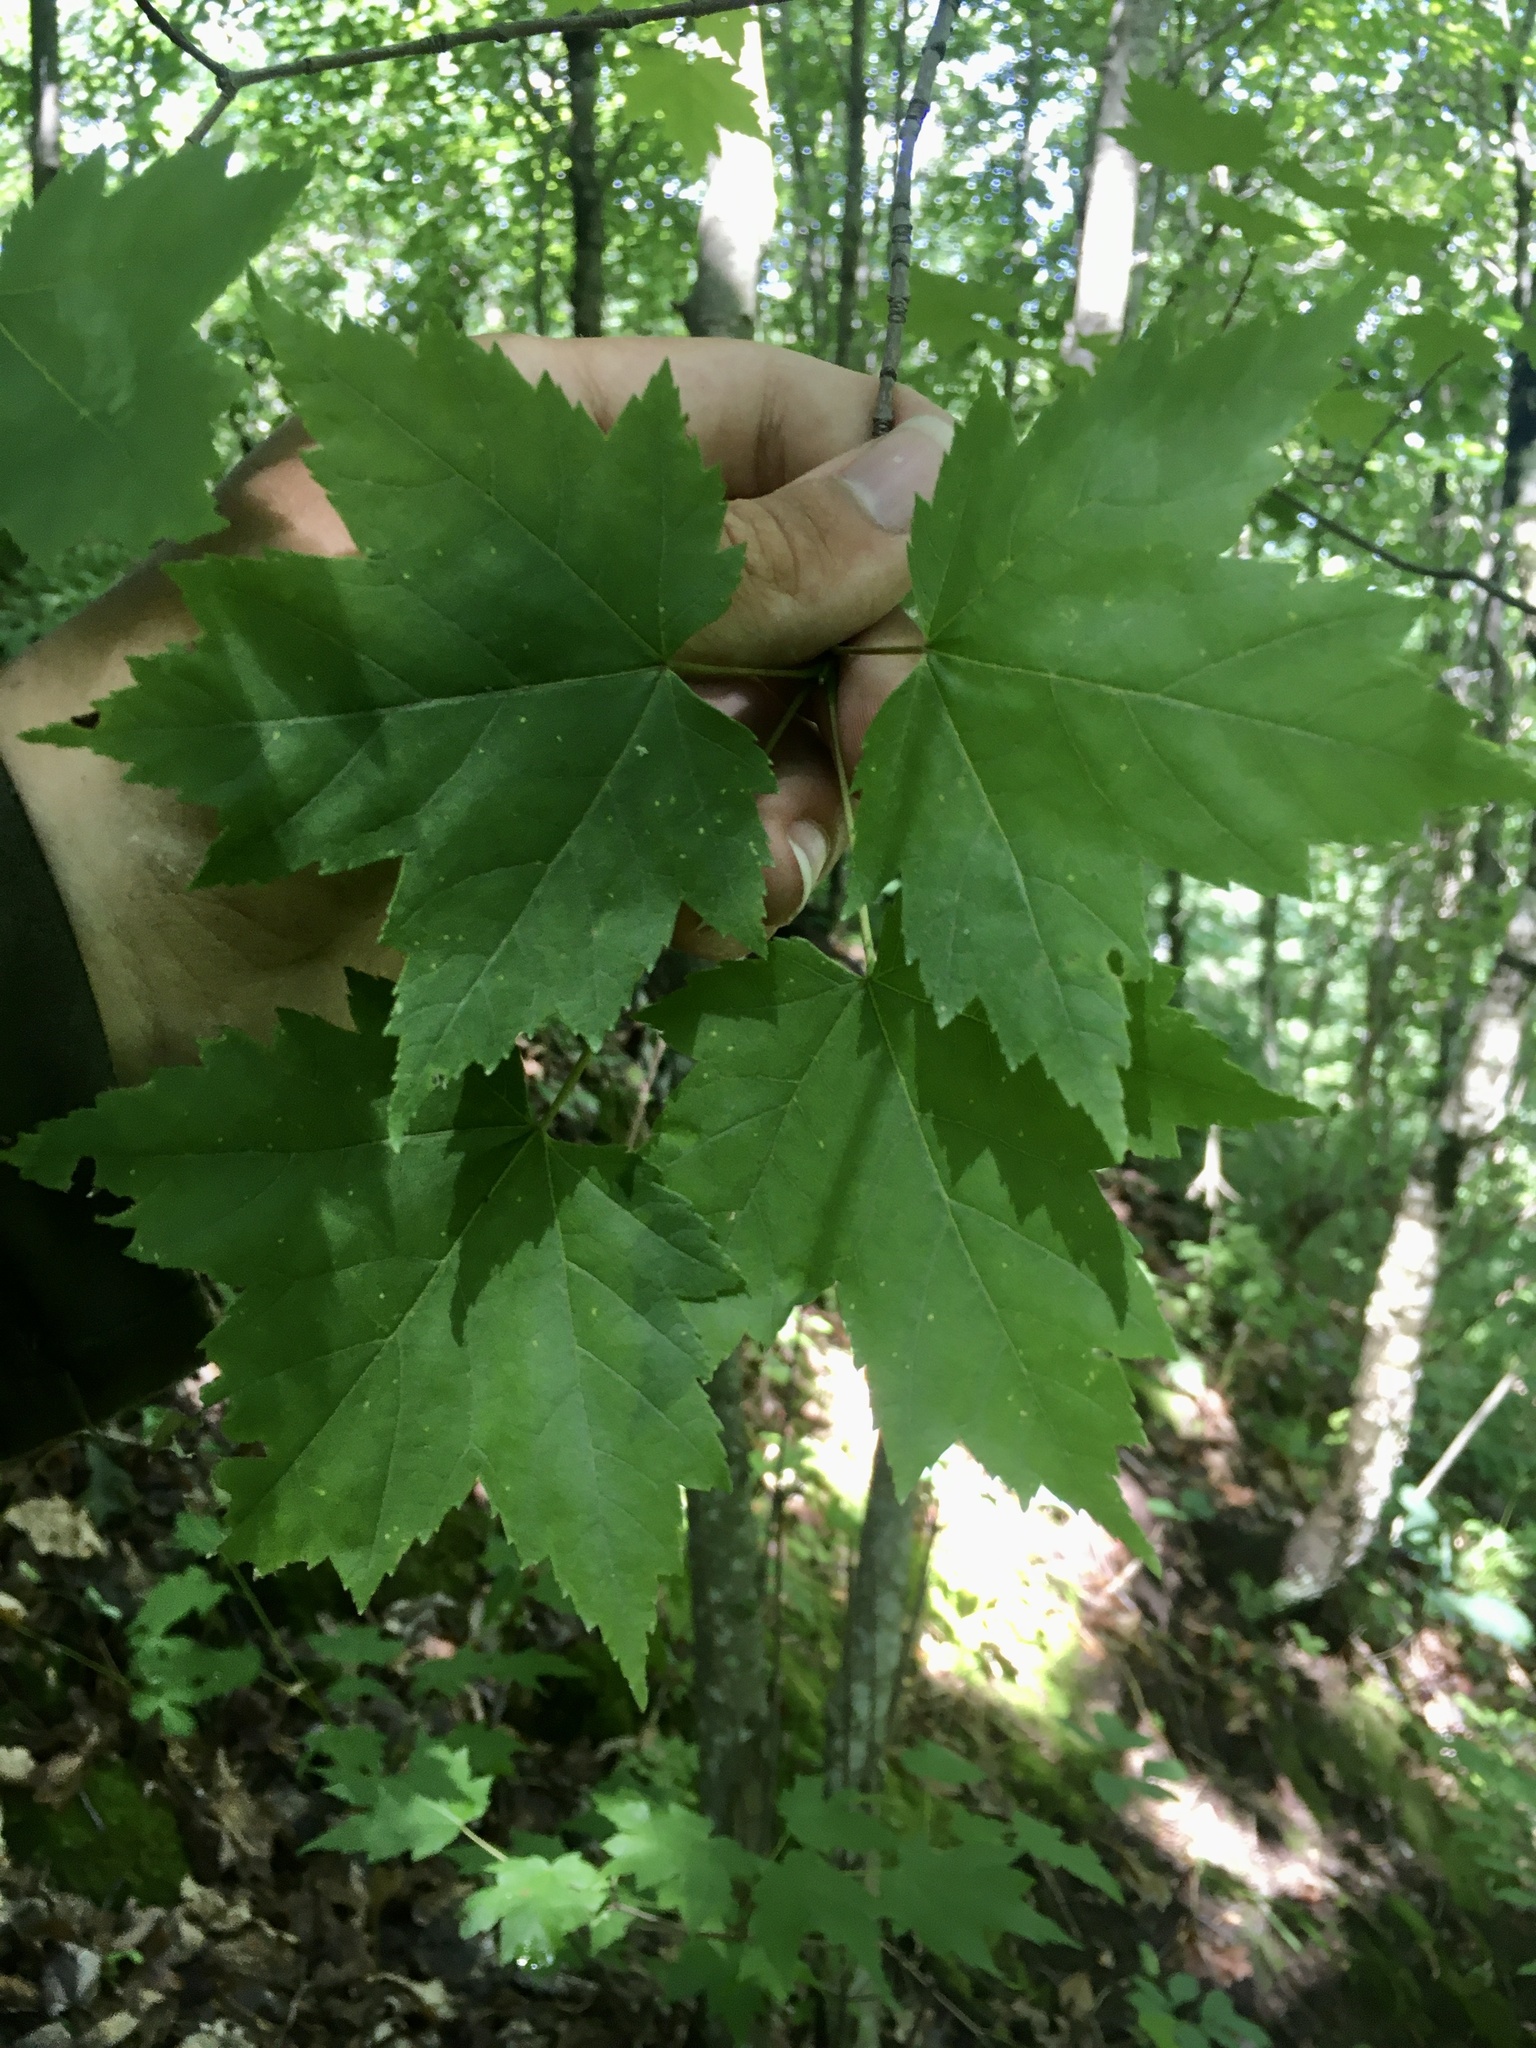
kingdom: Plantae
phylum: Tracheophyta
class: Magnoliopsida
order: Sapindales
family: Sapindaceae
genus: Acer
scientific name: Acer rubrum
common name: Red maple
